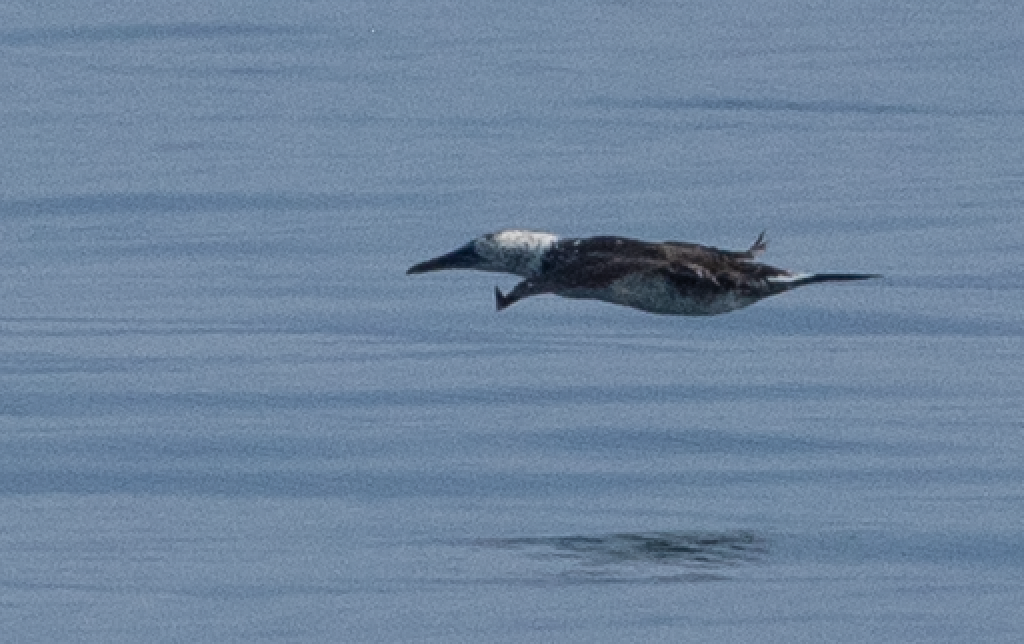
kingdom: Animalia
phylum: Chordata
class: Aves
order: Suliformes
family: Sulidae
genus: Morus
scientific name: Morus bassanus
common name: Northern gannet
